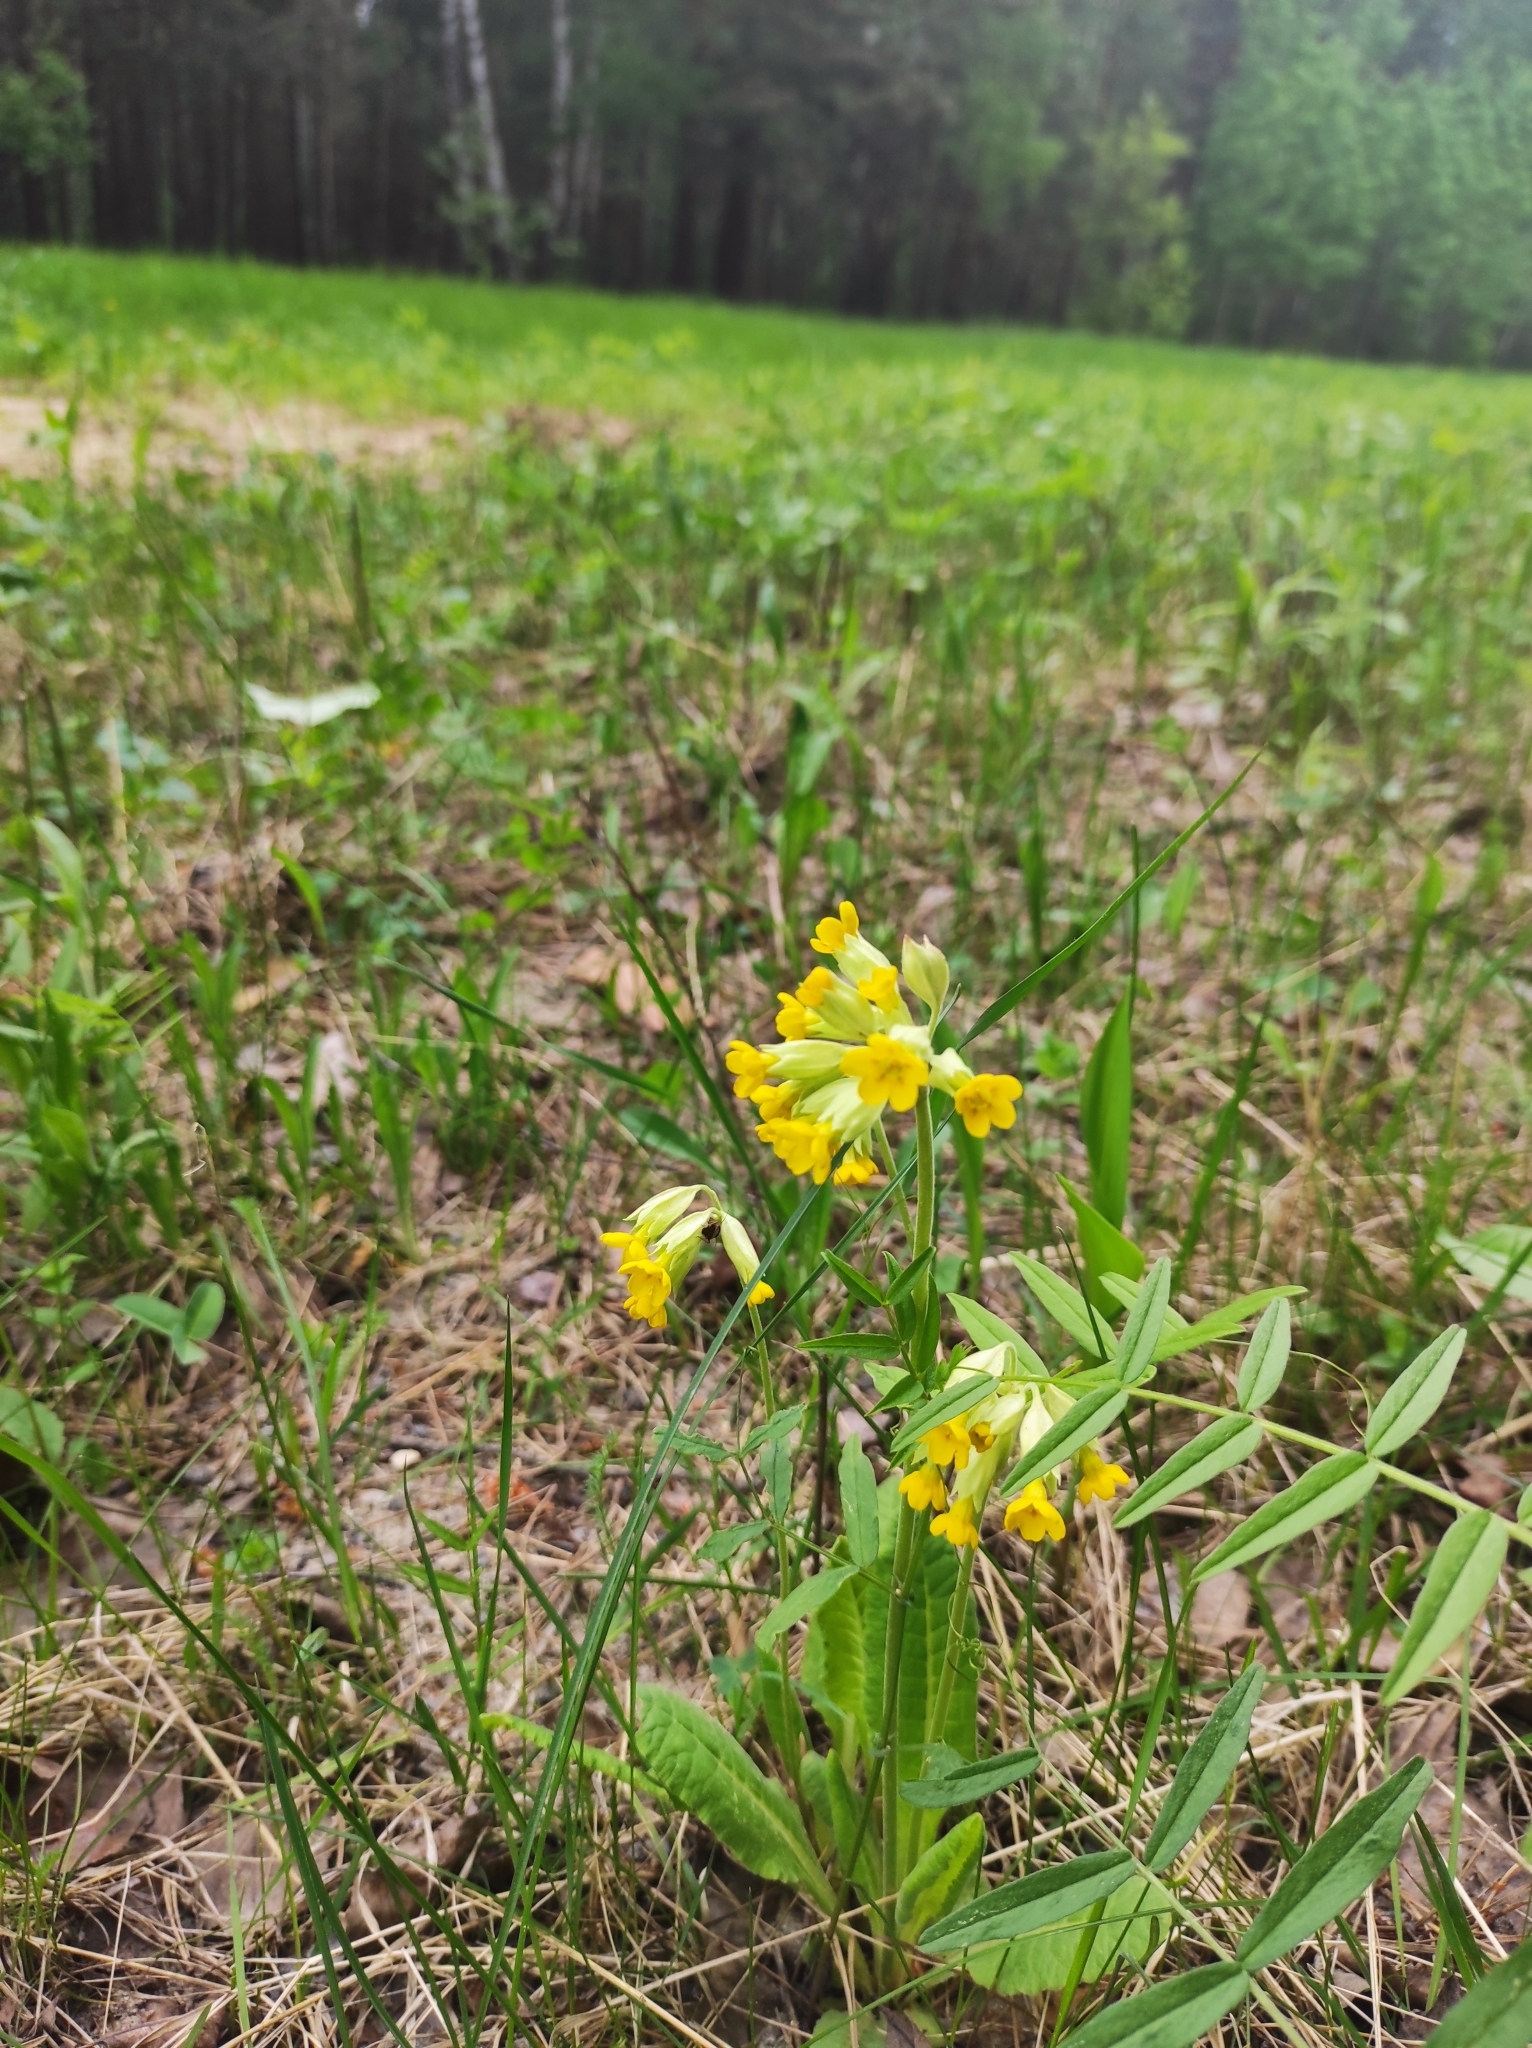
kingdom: Plantae
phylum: Tracheophyta
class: Magnoliopsida
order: Ericales
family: Primulaceae
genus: Primula
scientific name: Primula veris
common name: Cowslip
